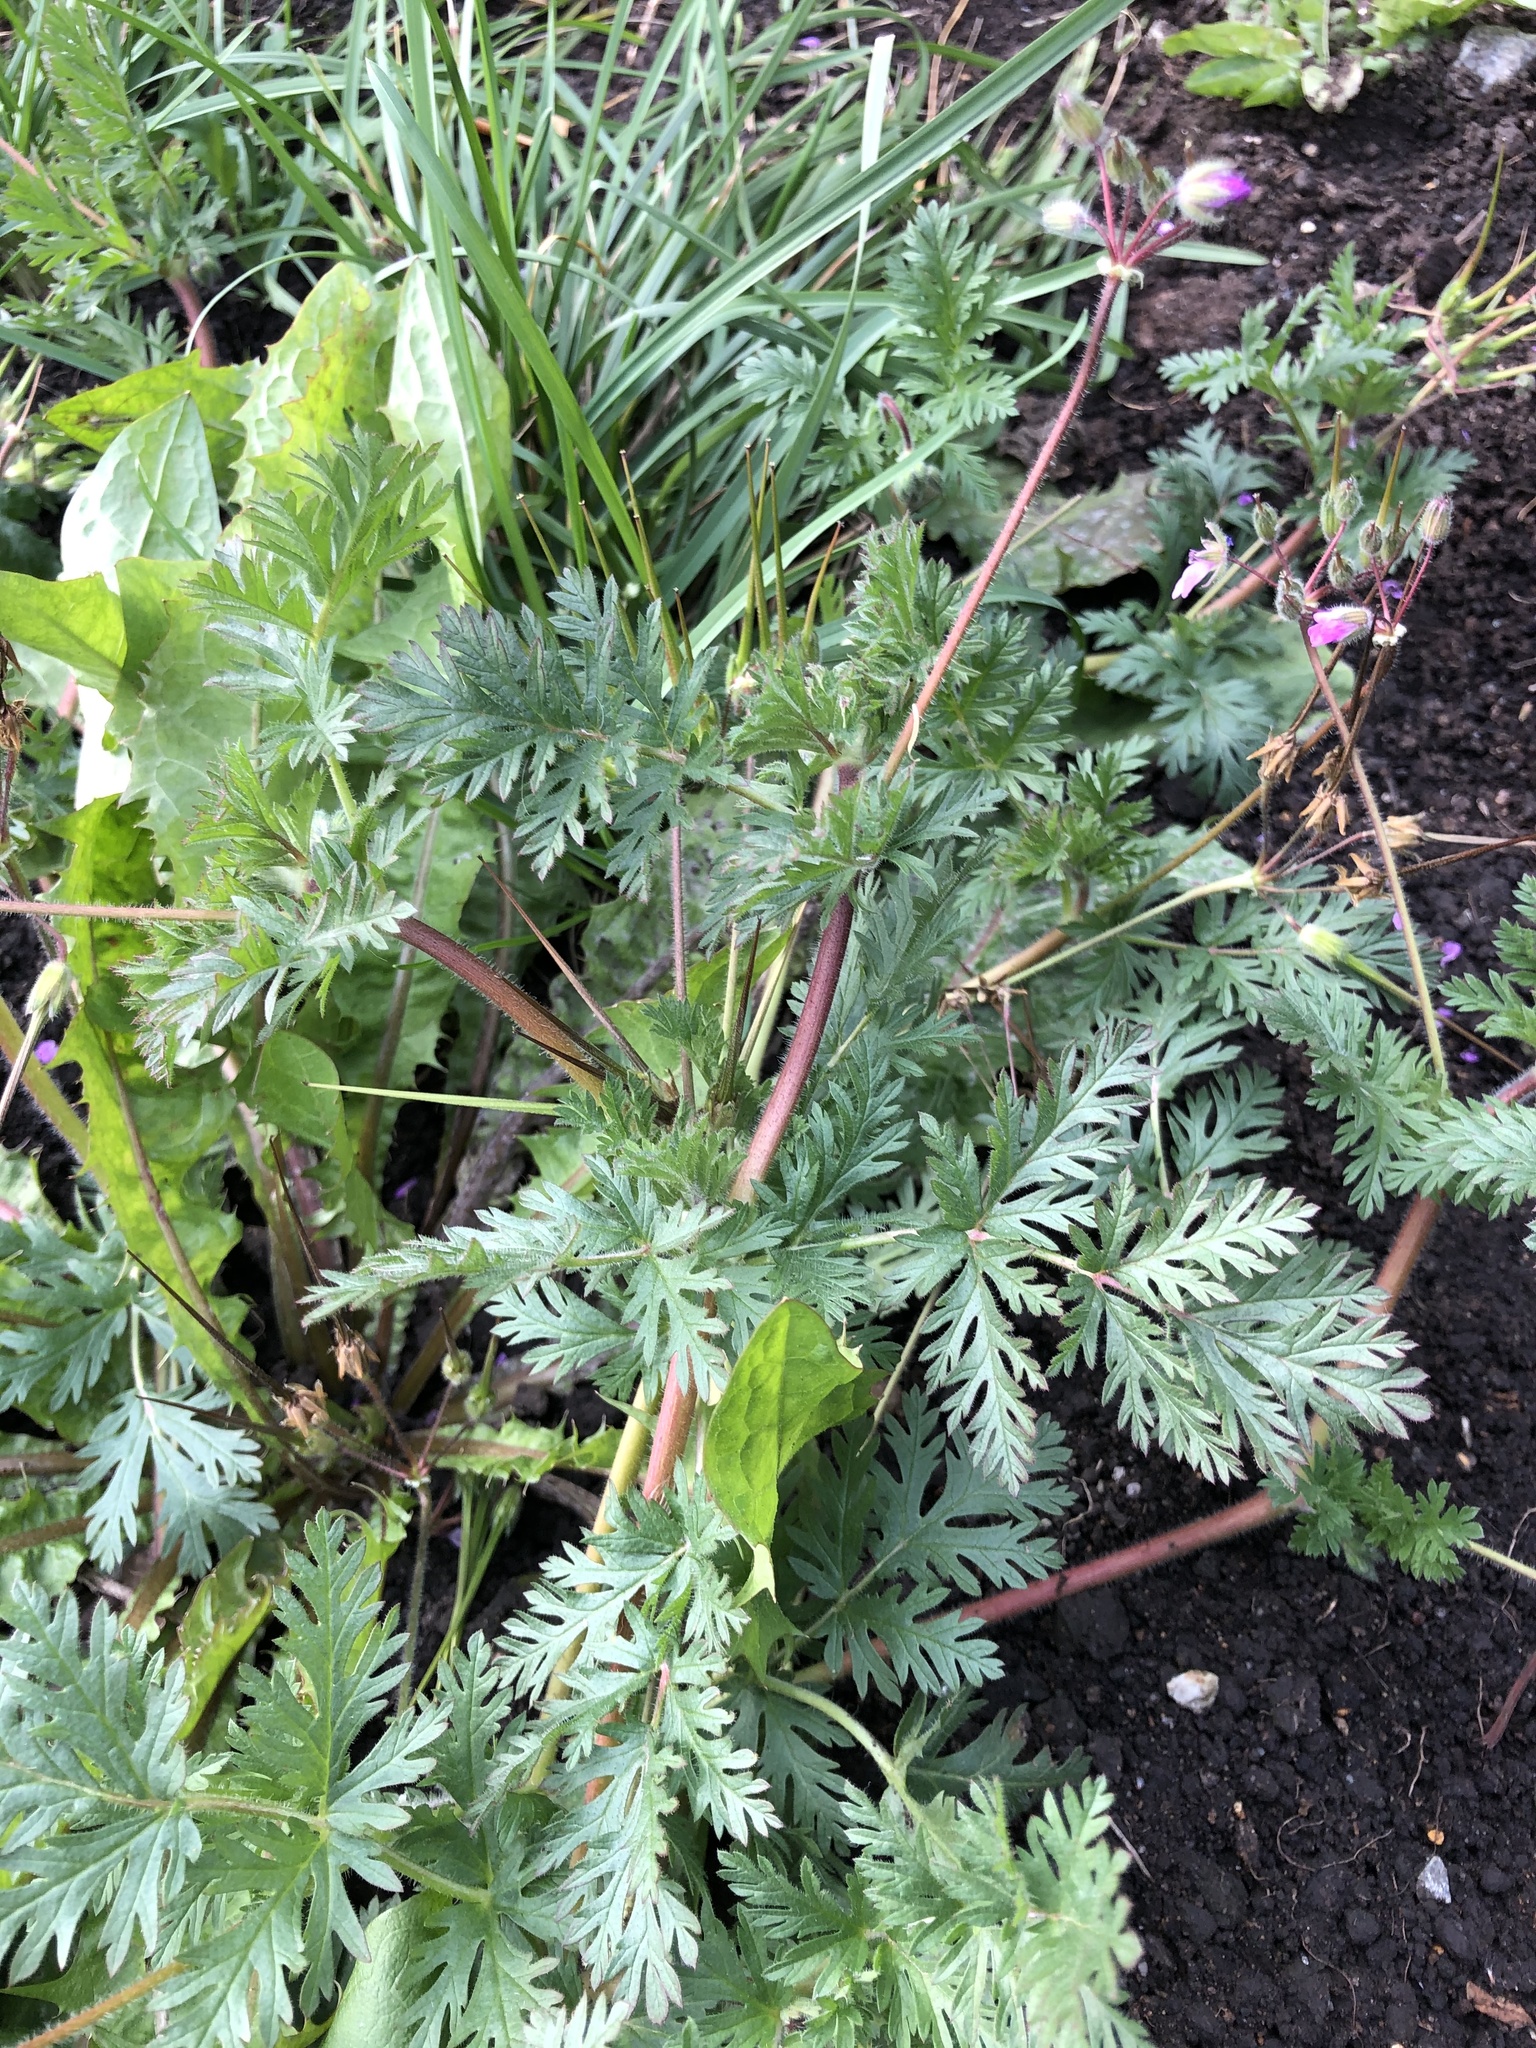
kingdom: Plantae
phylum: Tracheophyta
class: Magnoliopsida
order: Geraniales
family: Geraniaceae
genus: Erodium
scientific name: Erodium cicutarium
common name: Common stork's-bill
